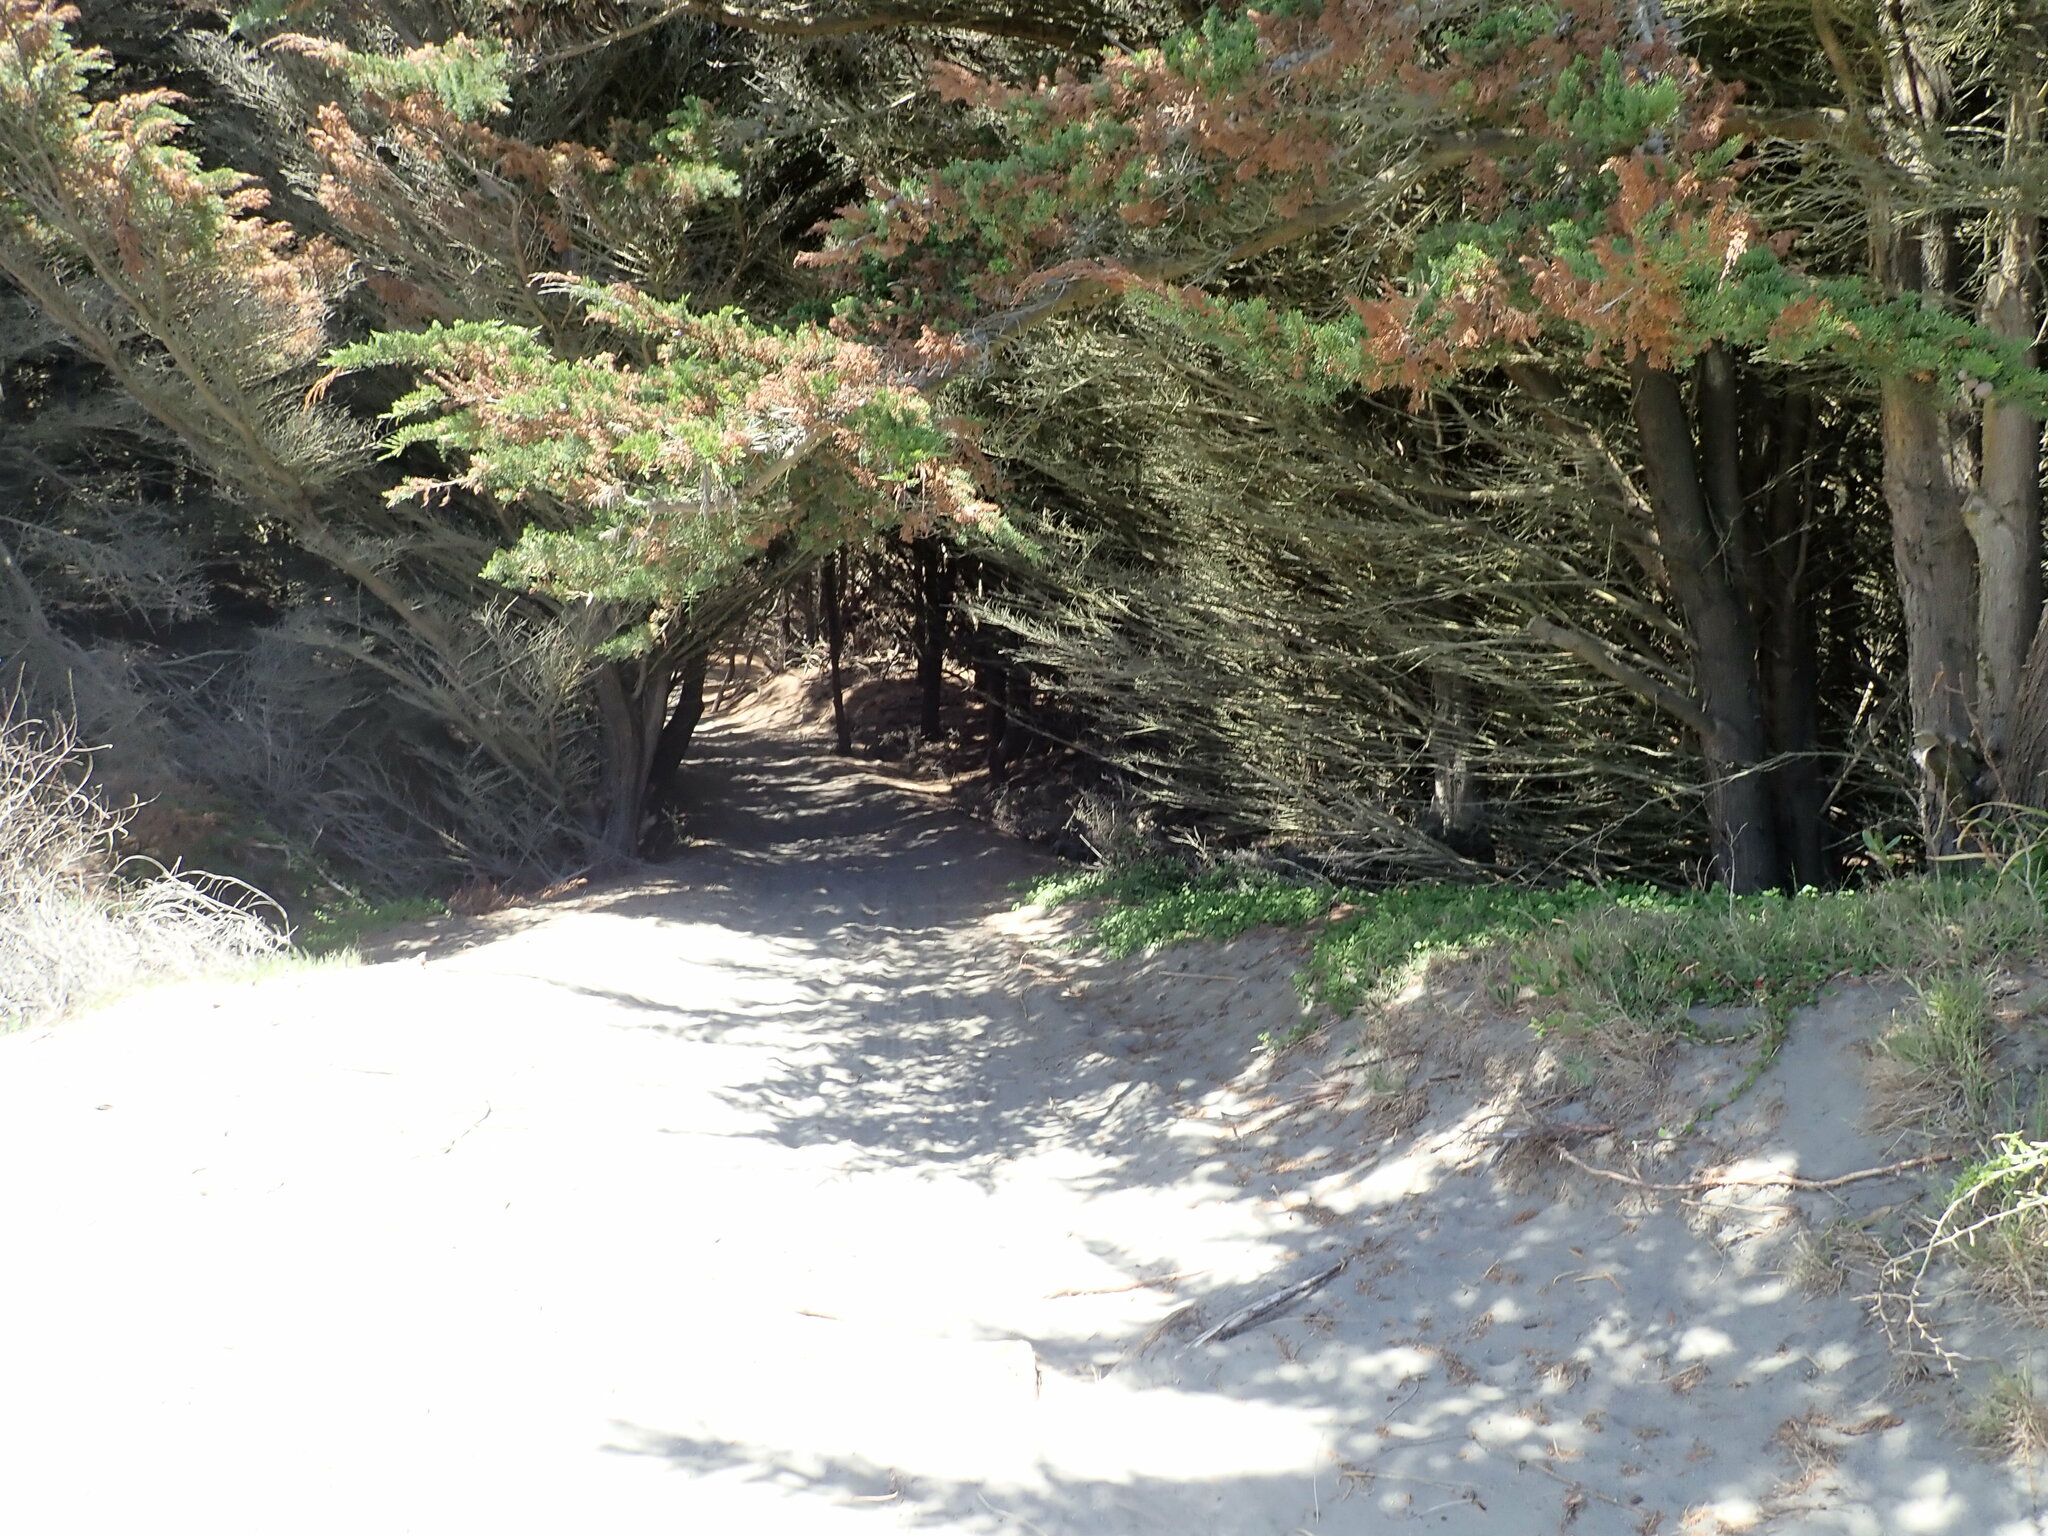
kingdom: Plantae
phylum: Tracheophyta
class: Pinopsida
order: Pinales
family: Cupressaceae
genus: Cupressus
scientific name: Cupressus macrocarpa
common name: Monterey cypress
